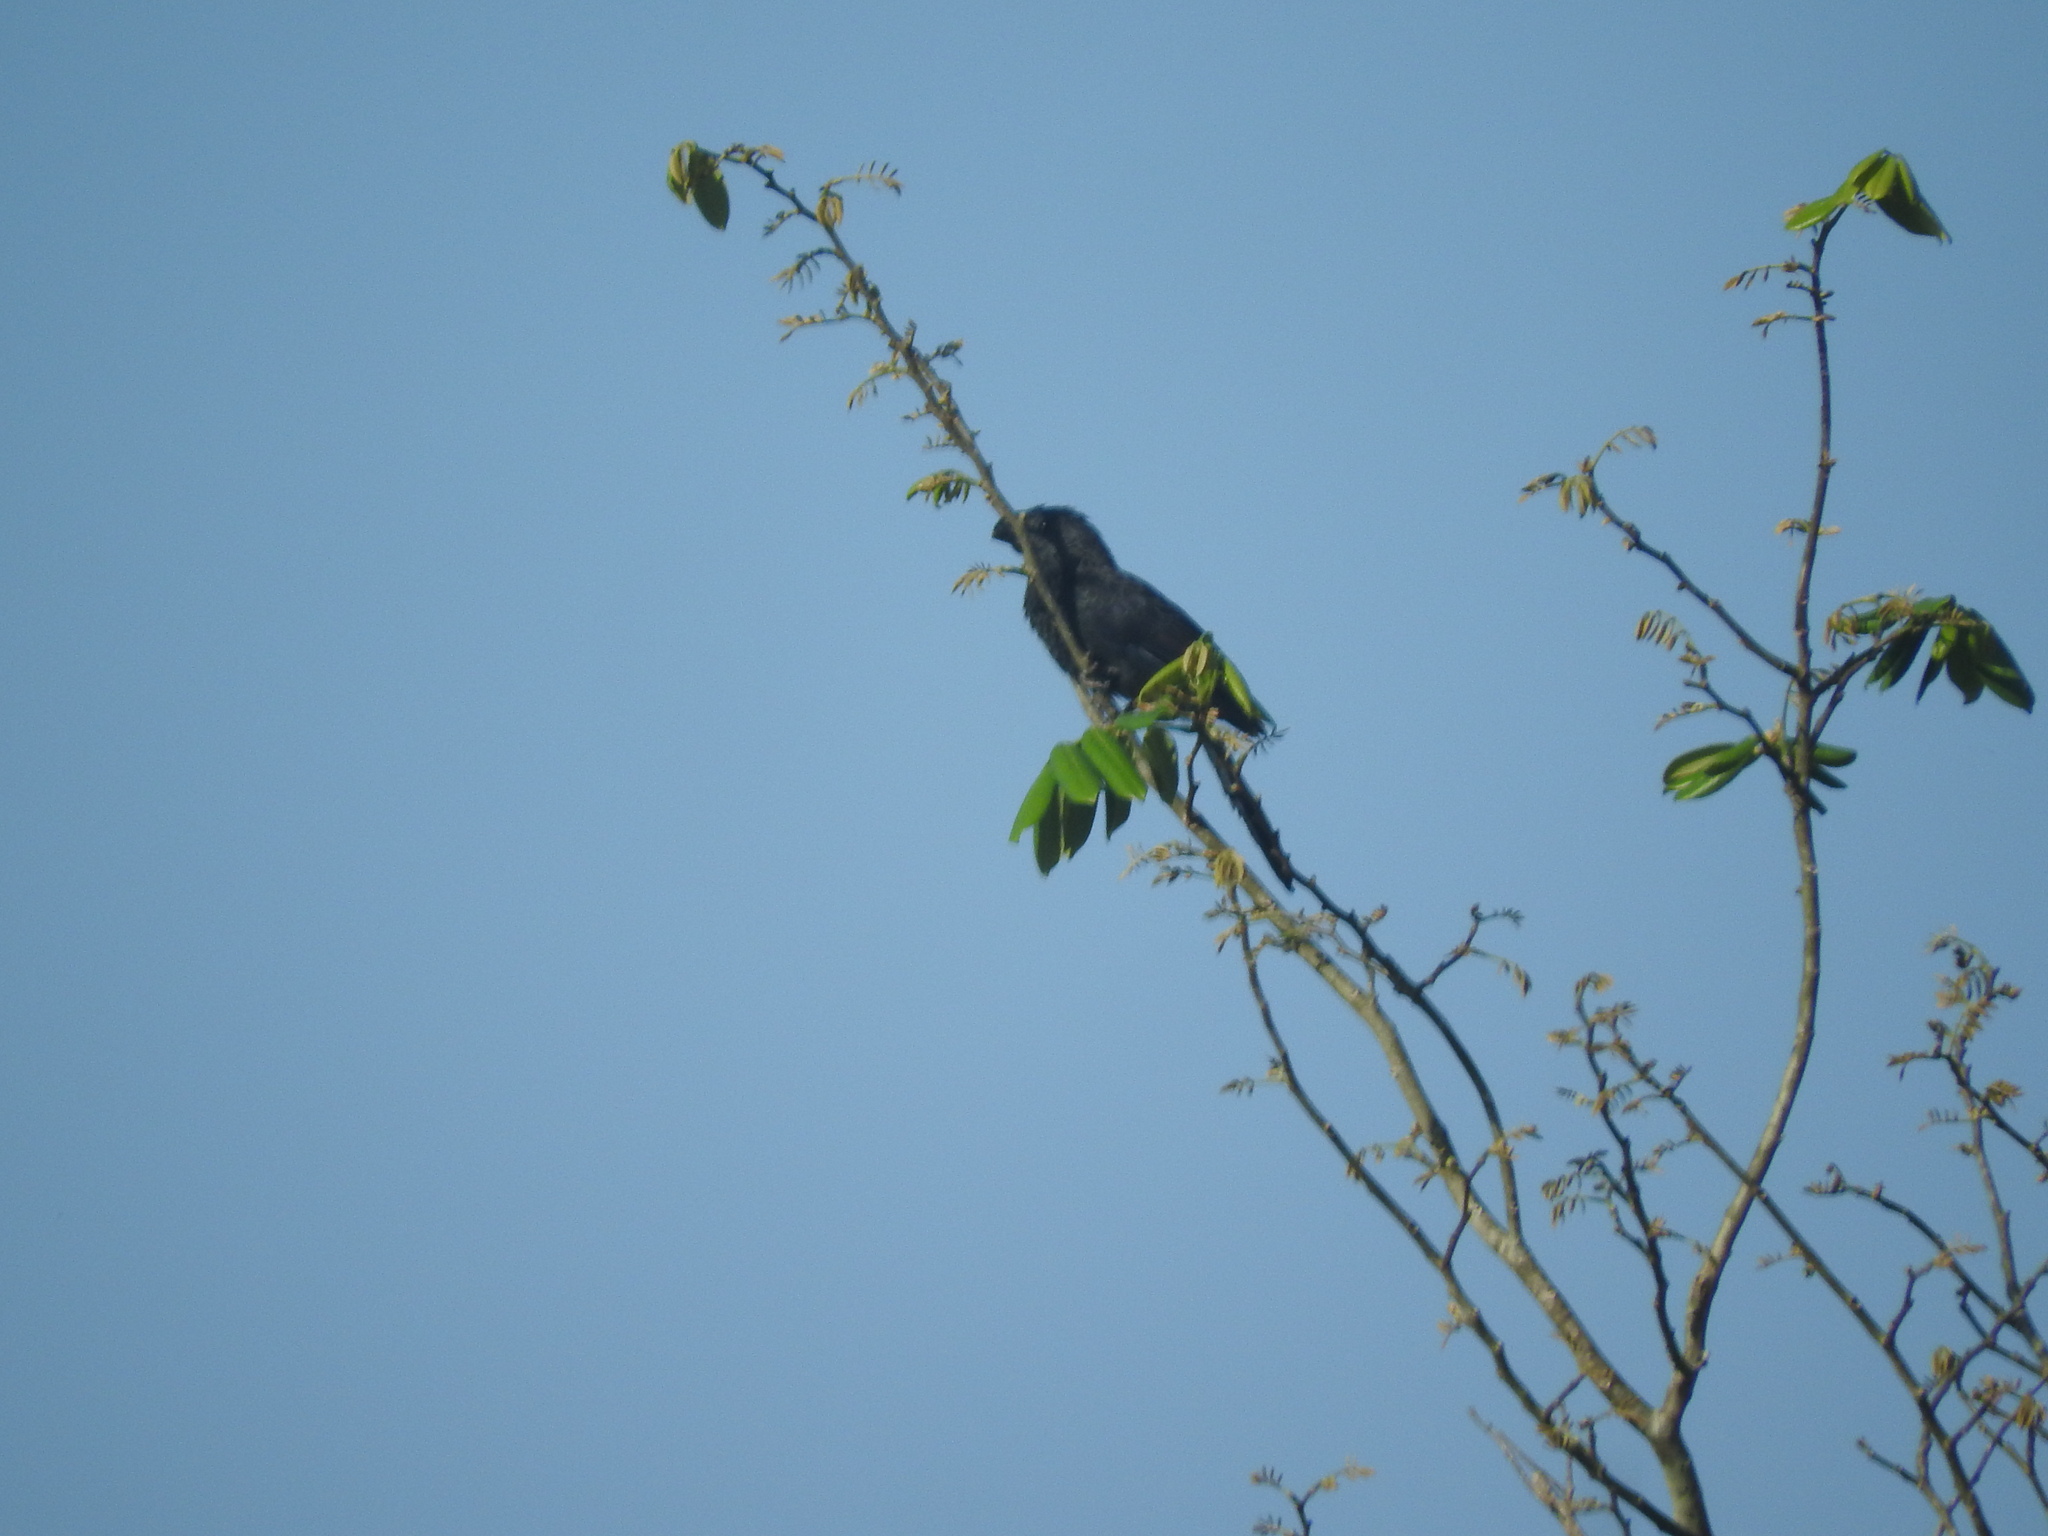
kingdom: Animalia
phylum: Chordata
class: Aves
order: Cuculiformes
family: Cuculidae
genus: Crotophaga
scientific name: Crotophaga sulcirostris
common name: Groove-billed ani
